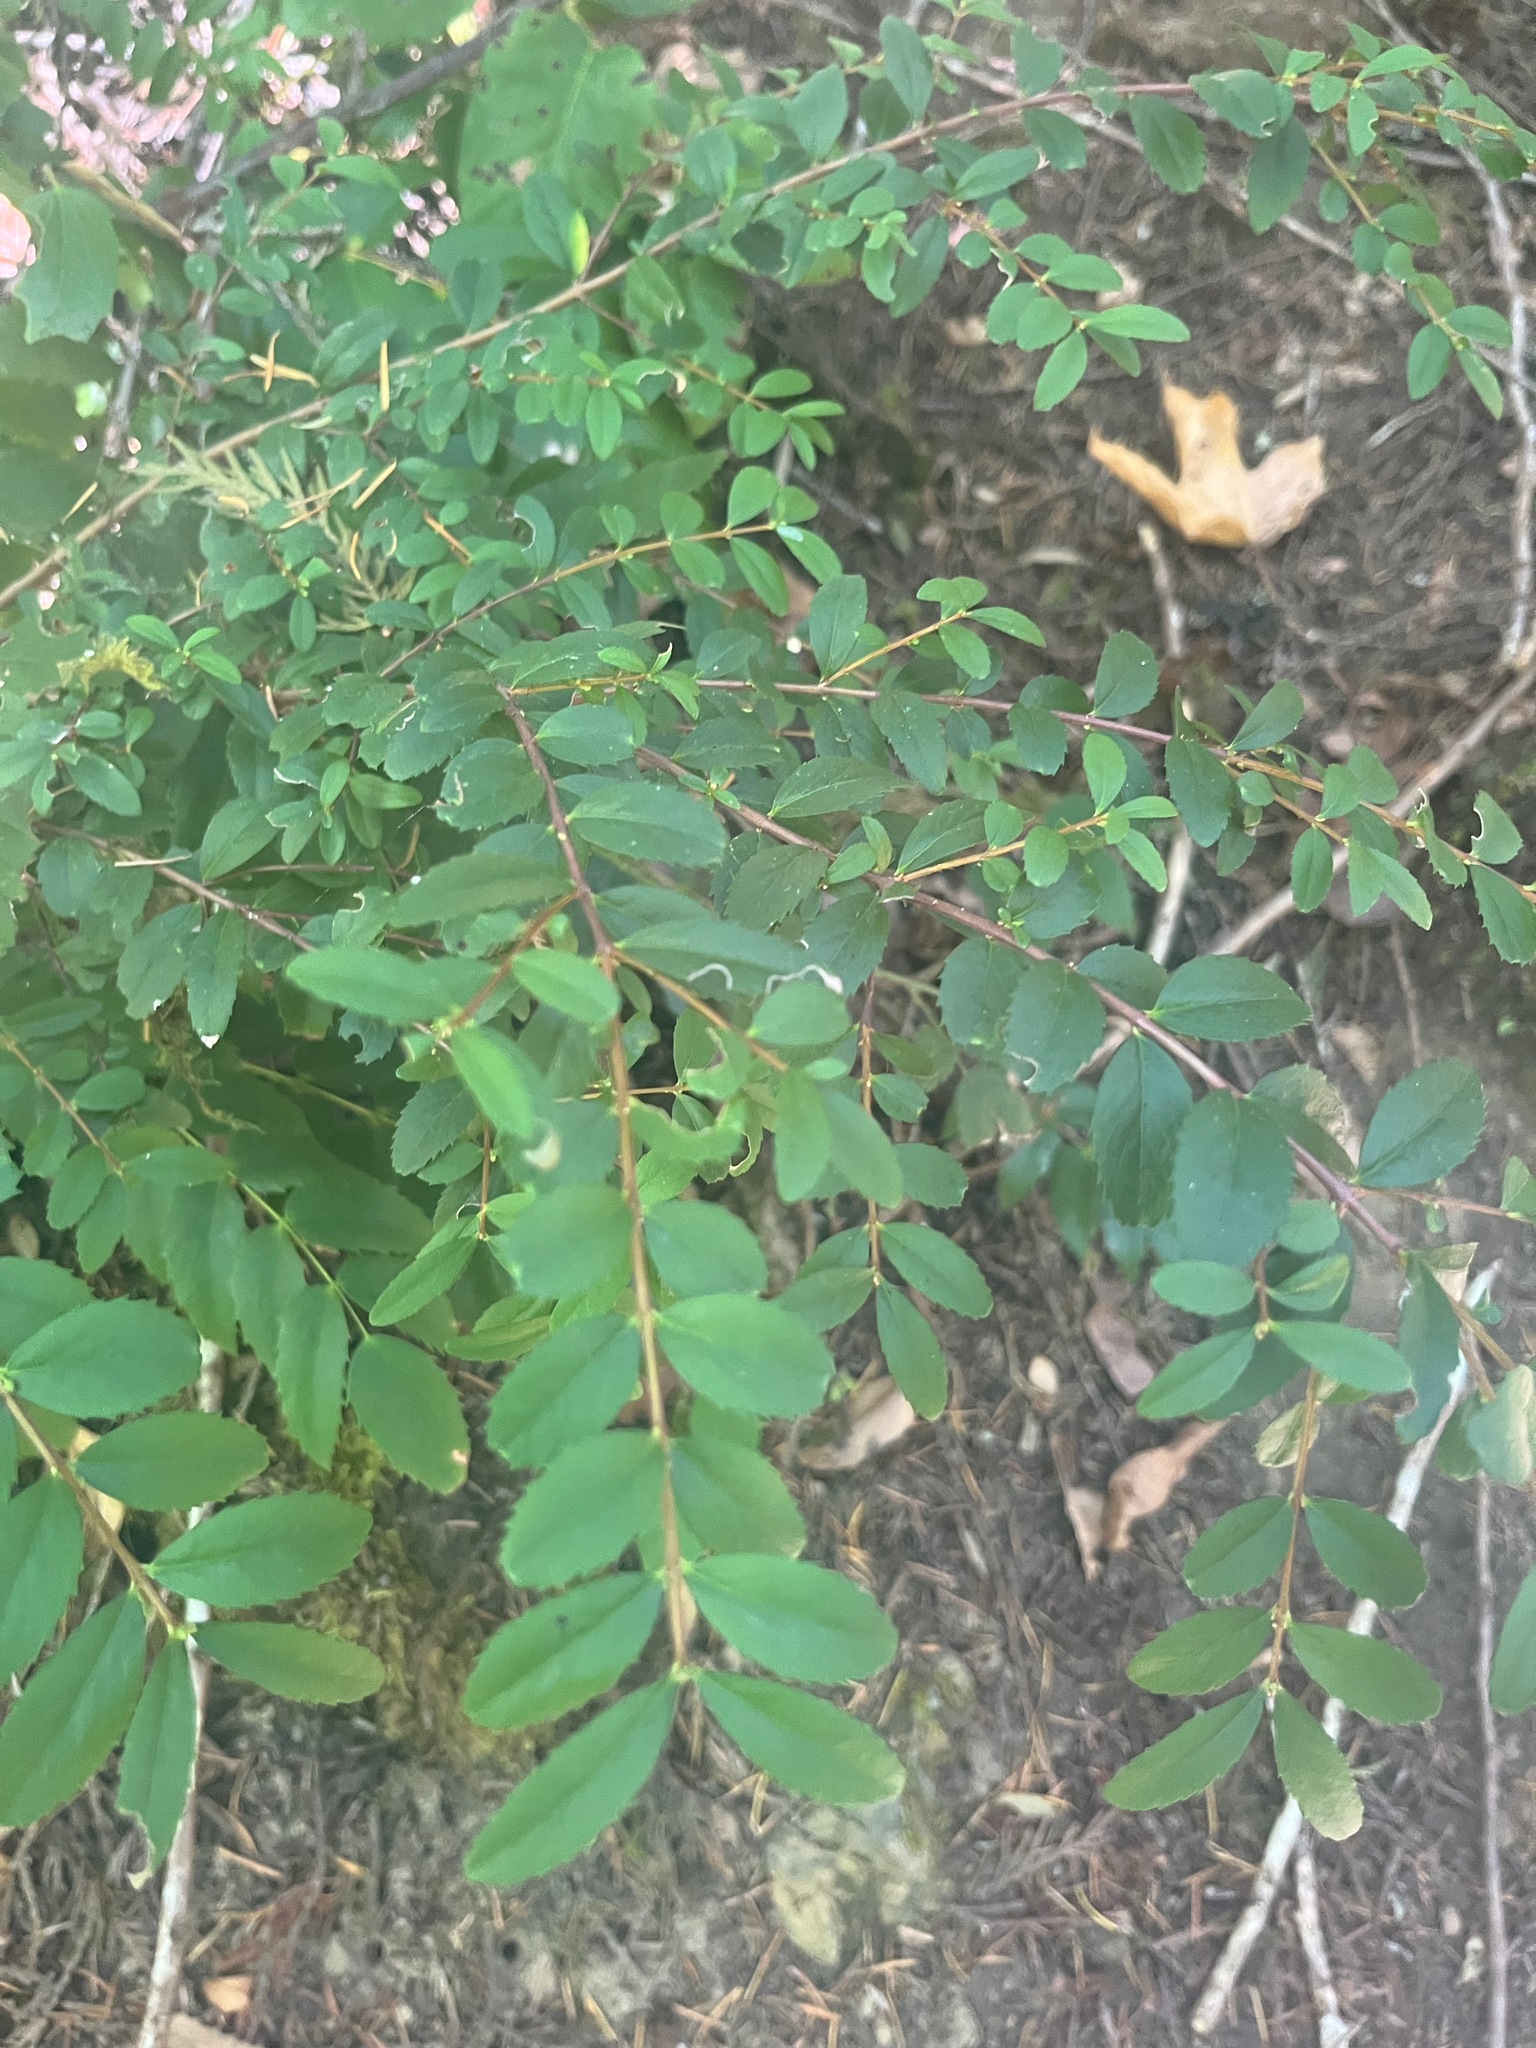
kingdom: Plantae
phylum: Tracheophyta
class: Magnoliopsida
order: Celastrales
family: Celastraceae
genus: Paxistima
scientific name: Paxistima myrsinites
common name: Mountain-lover
